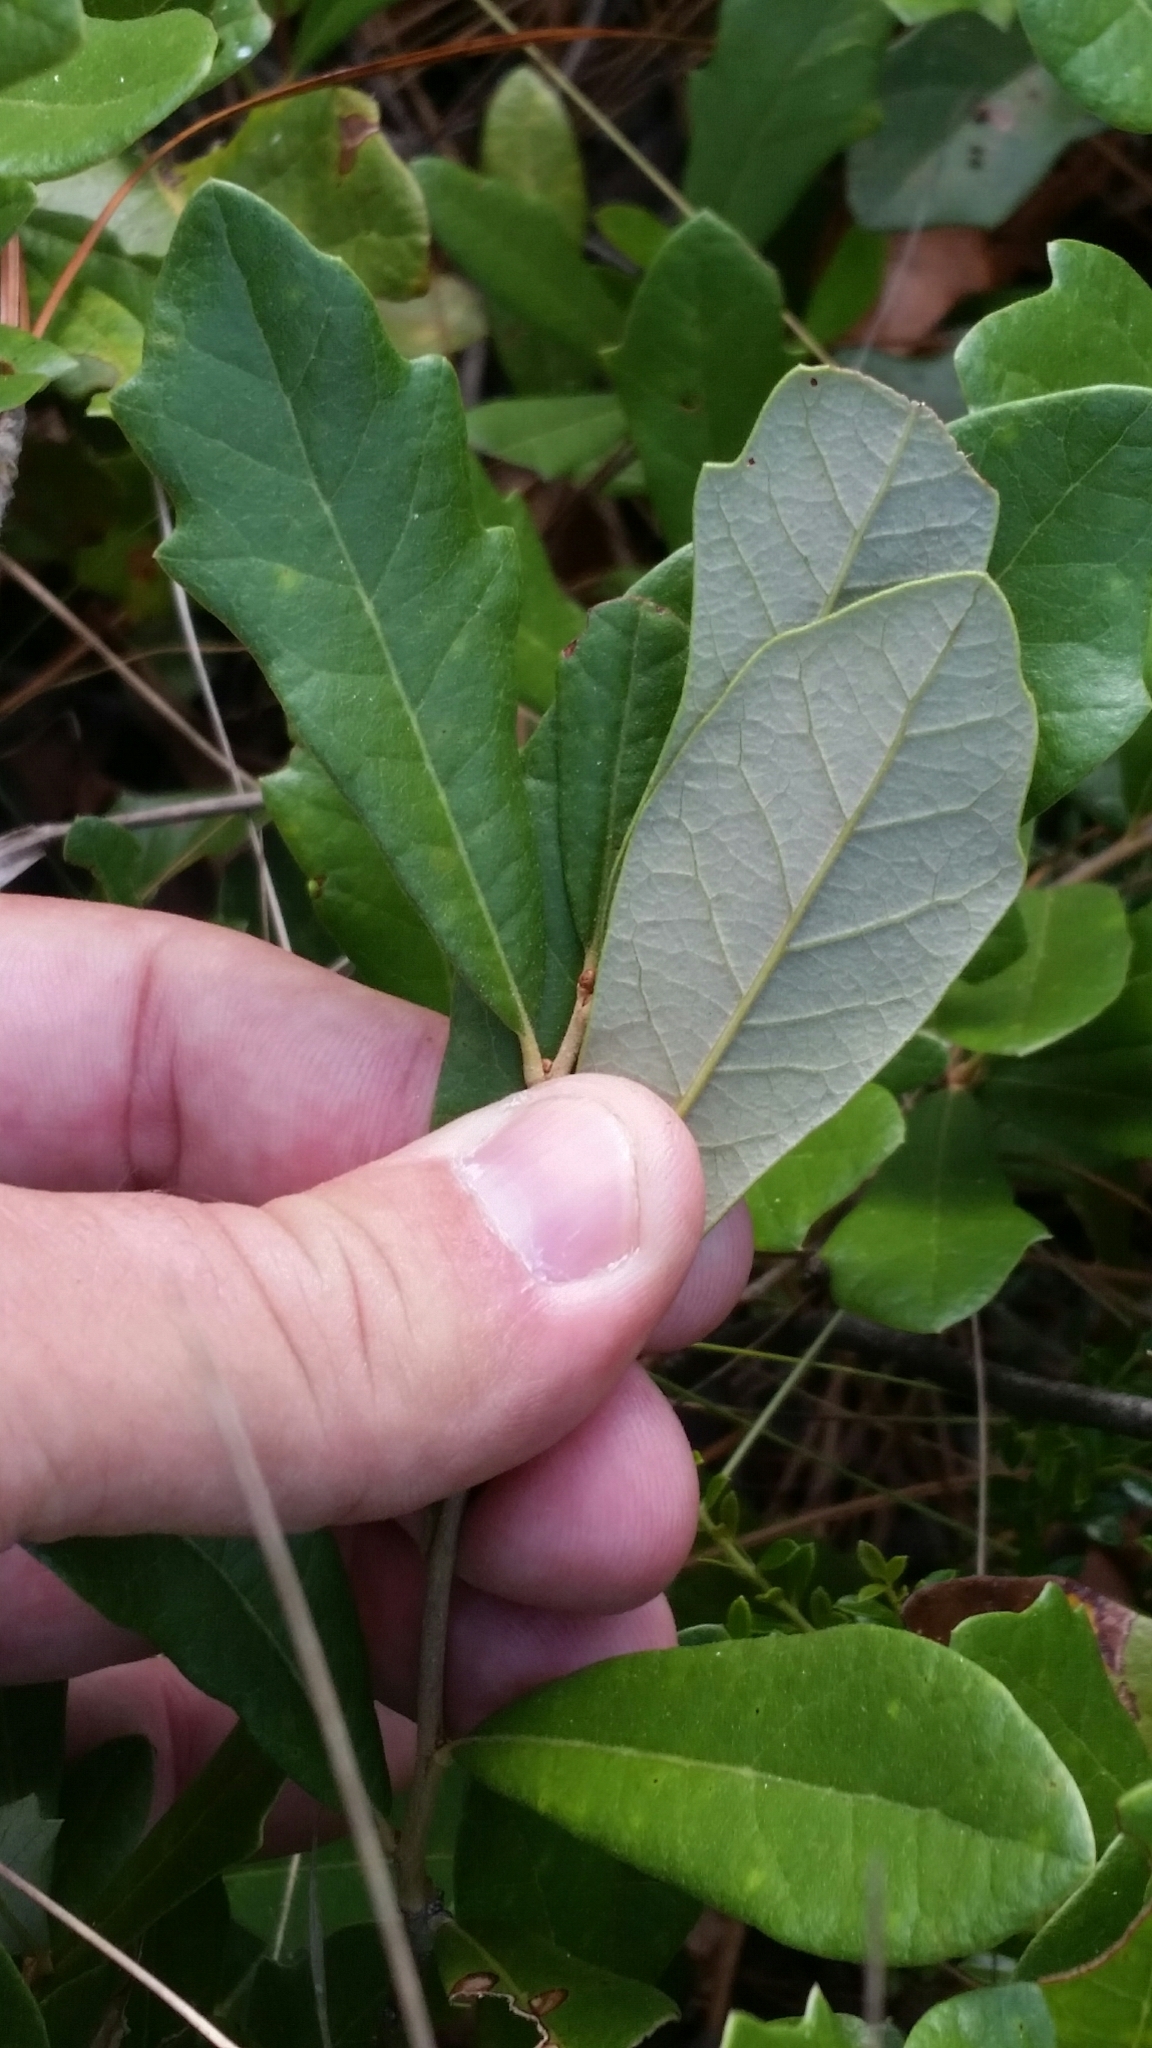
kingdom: Plantae
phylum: Tracheophyta
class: Magnoliopsida
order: Fagales
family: Fagaceae
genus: Quercus
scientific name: Quercus minima
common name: Dwarf live oak
